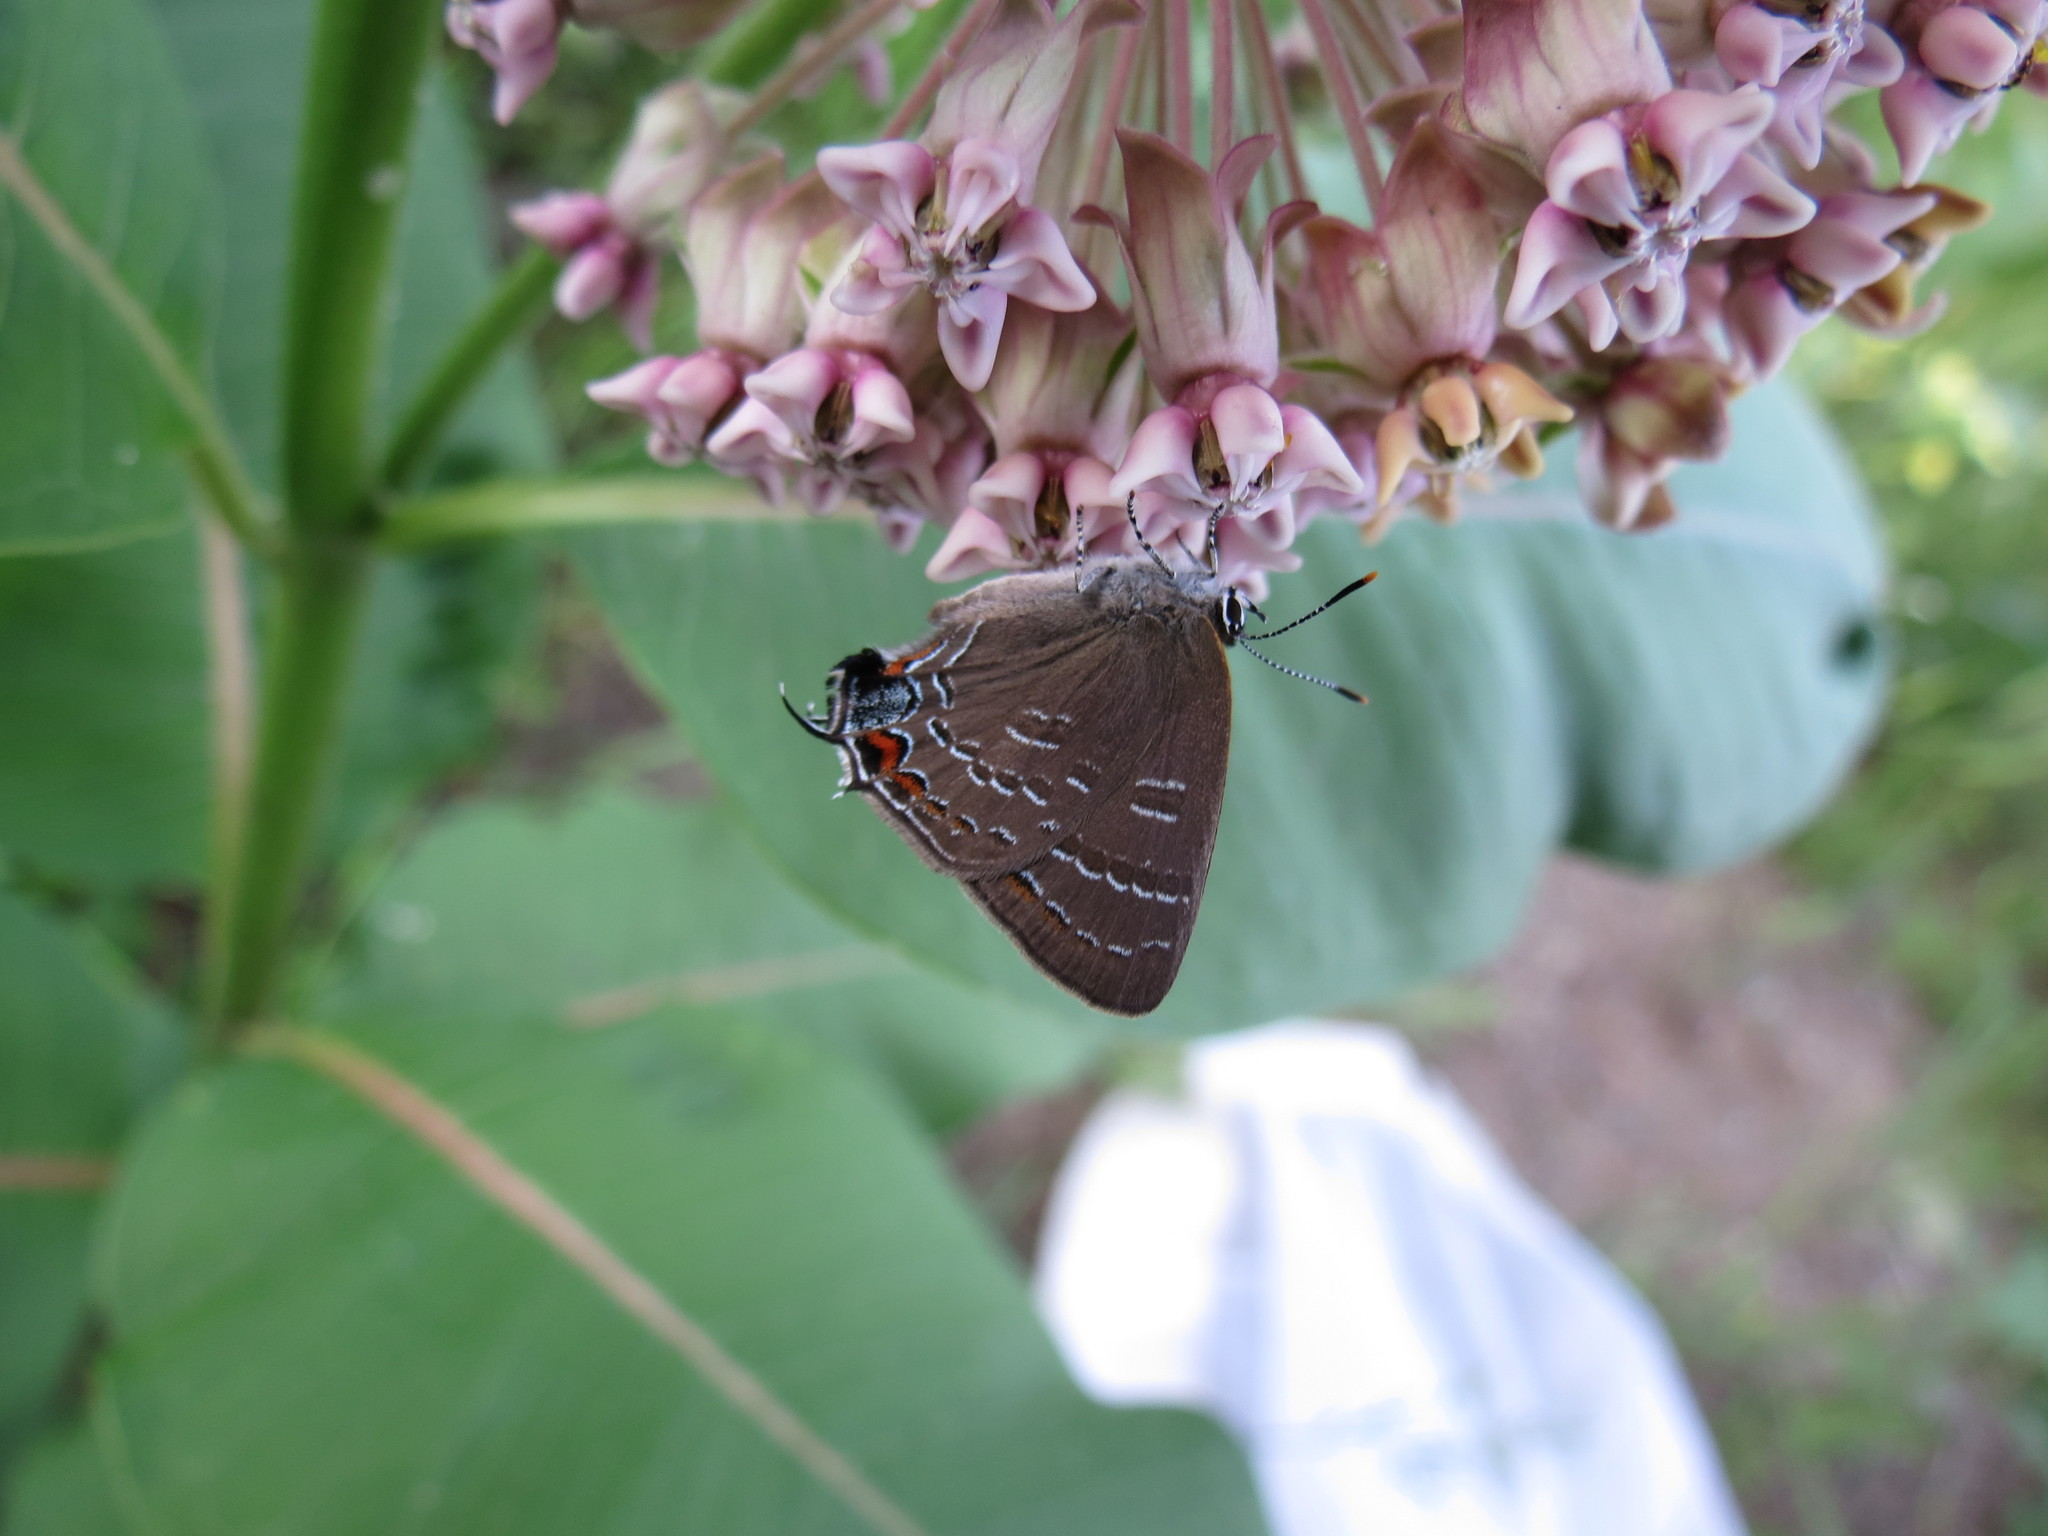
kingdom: Animalia
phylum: Arthropoda
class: Insecta
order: Lepidoptera
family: Lycaenidae
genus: Satyrium
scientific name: Satyrium calanus
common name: Banded hairstreak
